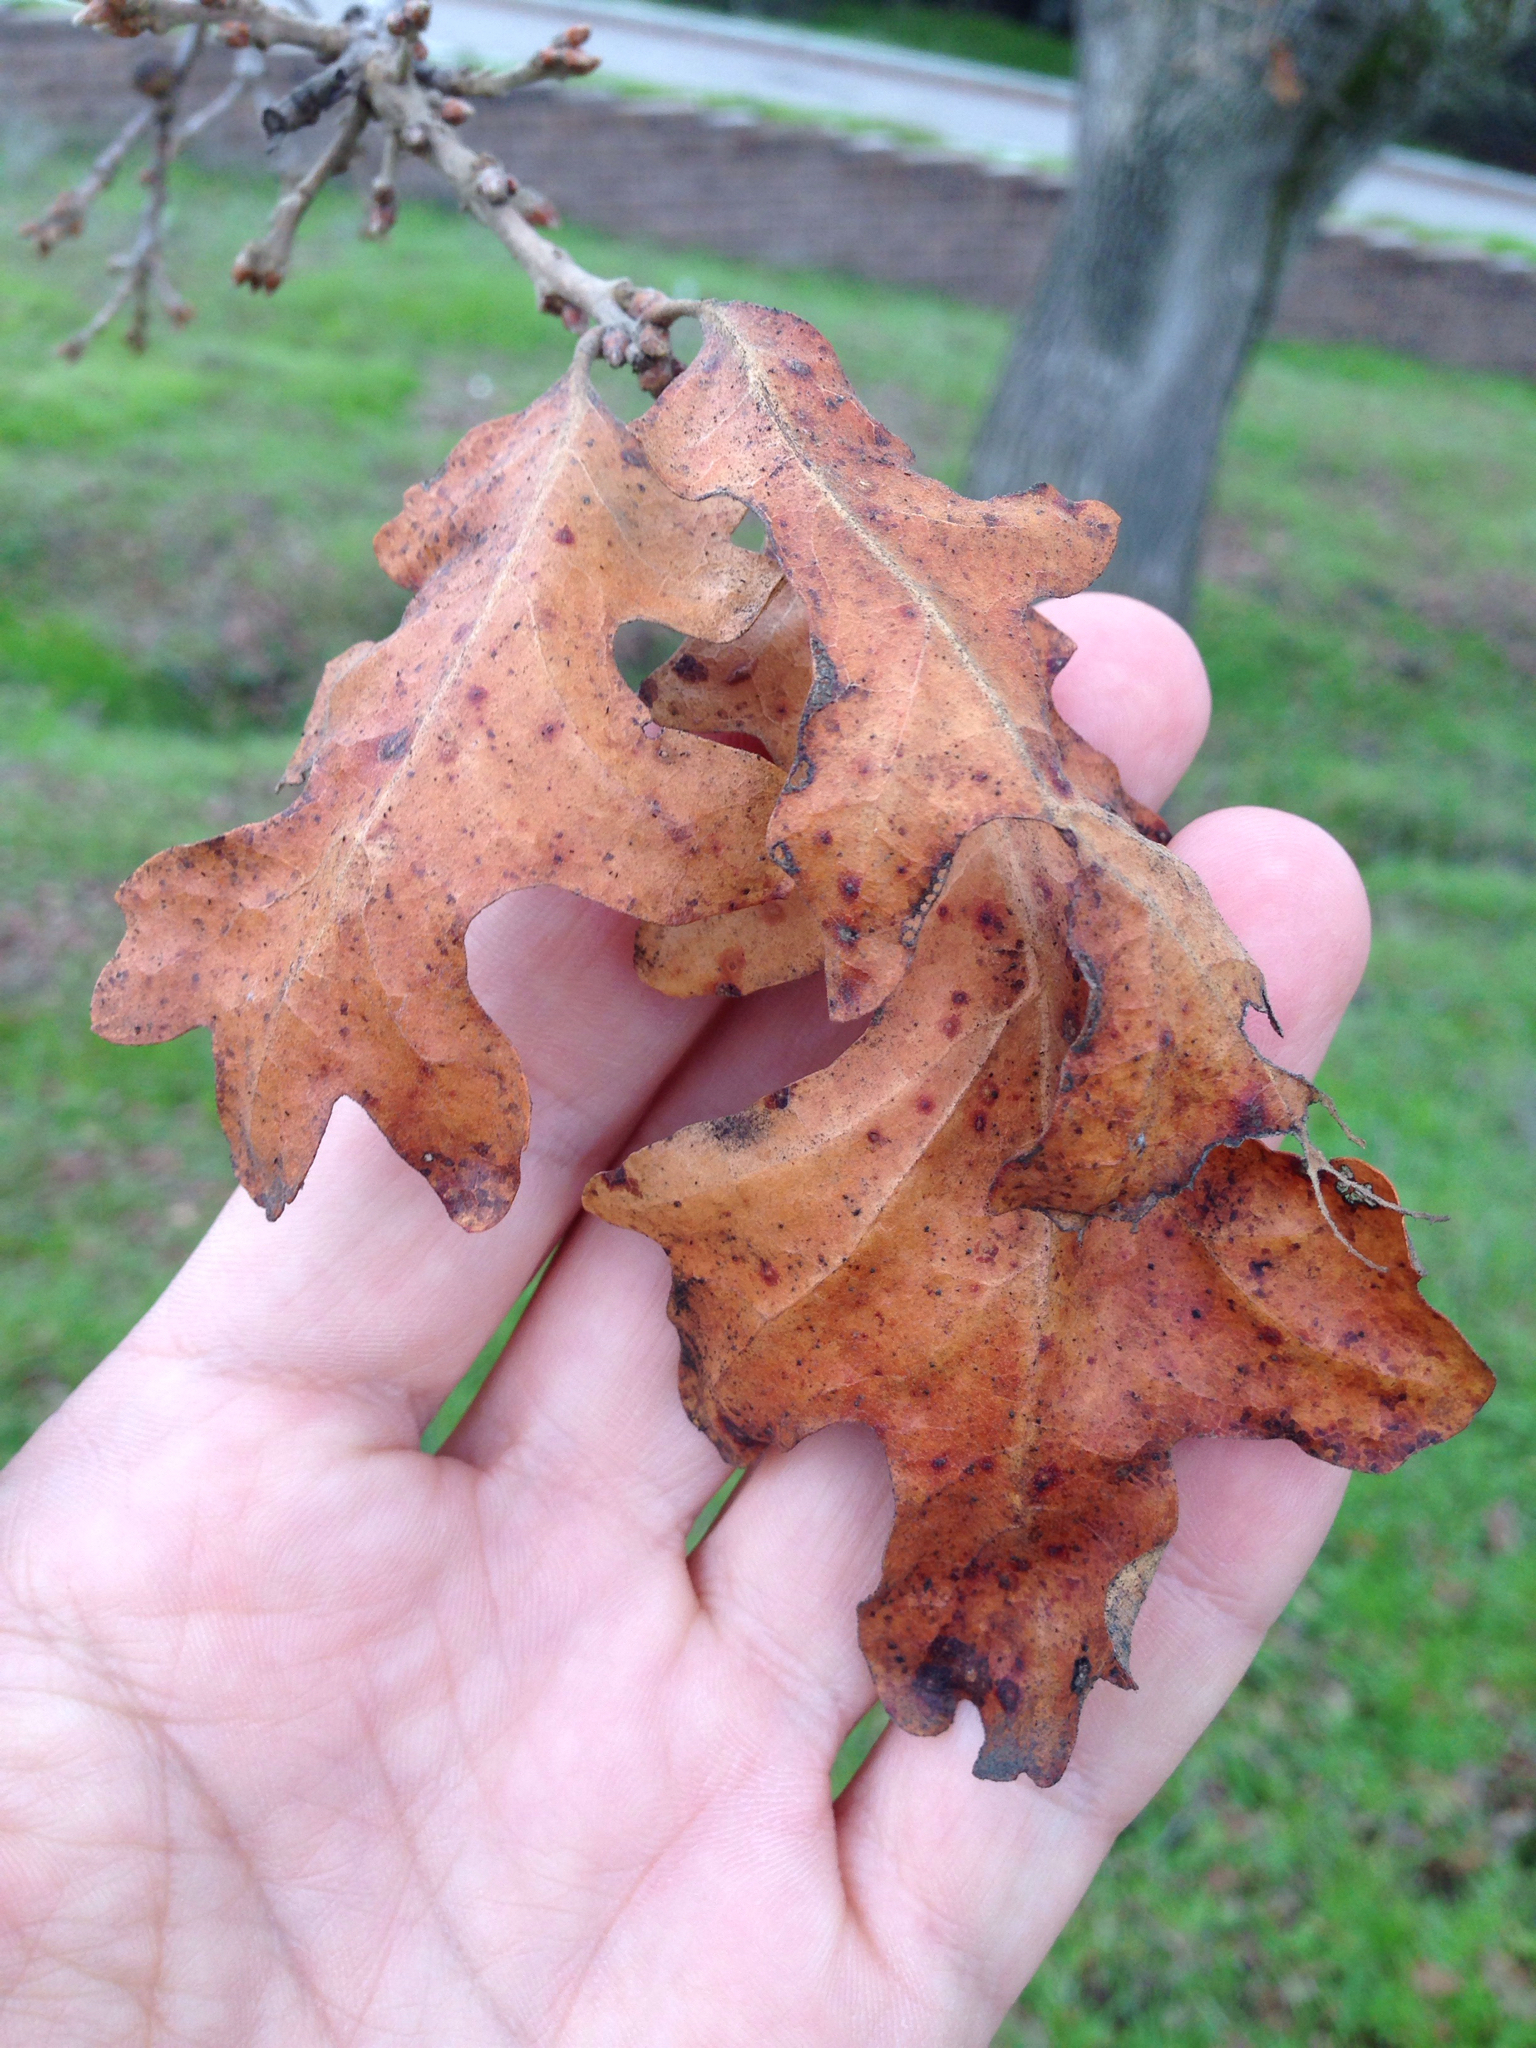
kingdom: Plantae
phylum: Tracheophyta
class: Magnoliopsida
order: Fagales
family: Fagaceae
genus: Quercus
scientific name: Quercus lobata
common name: Valley oak
